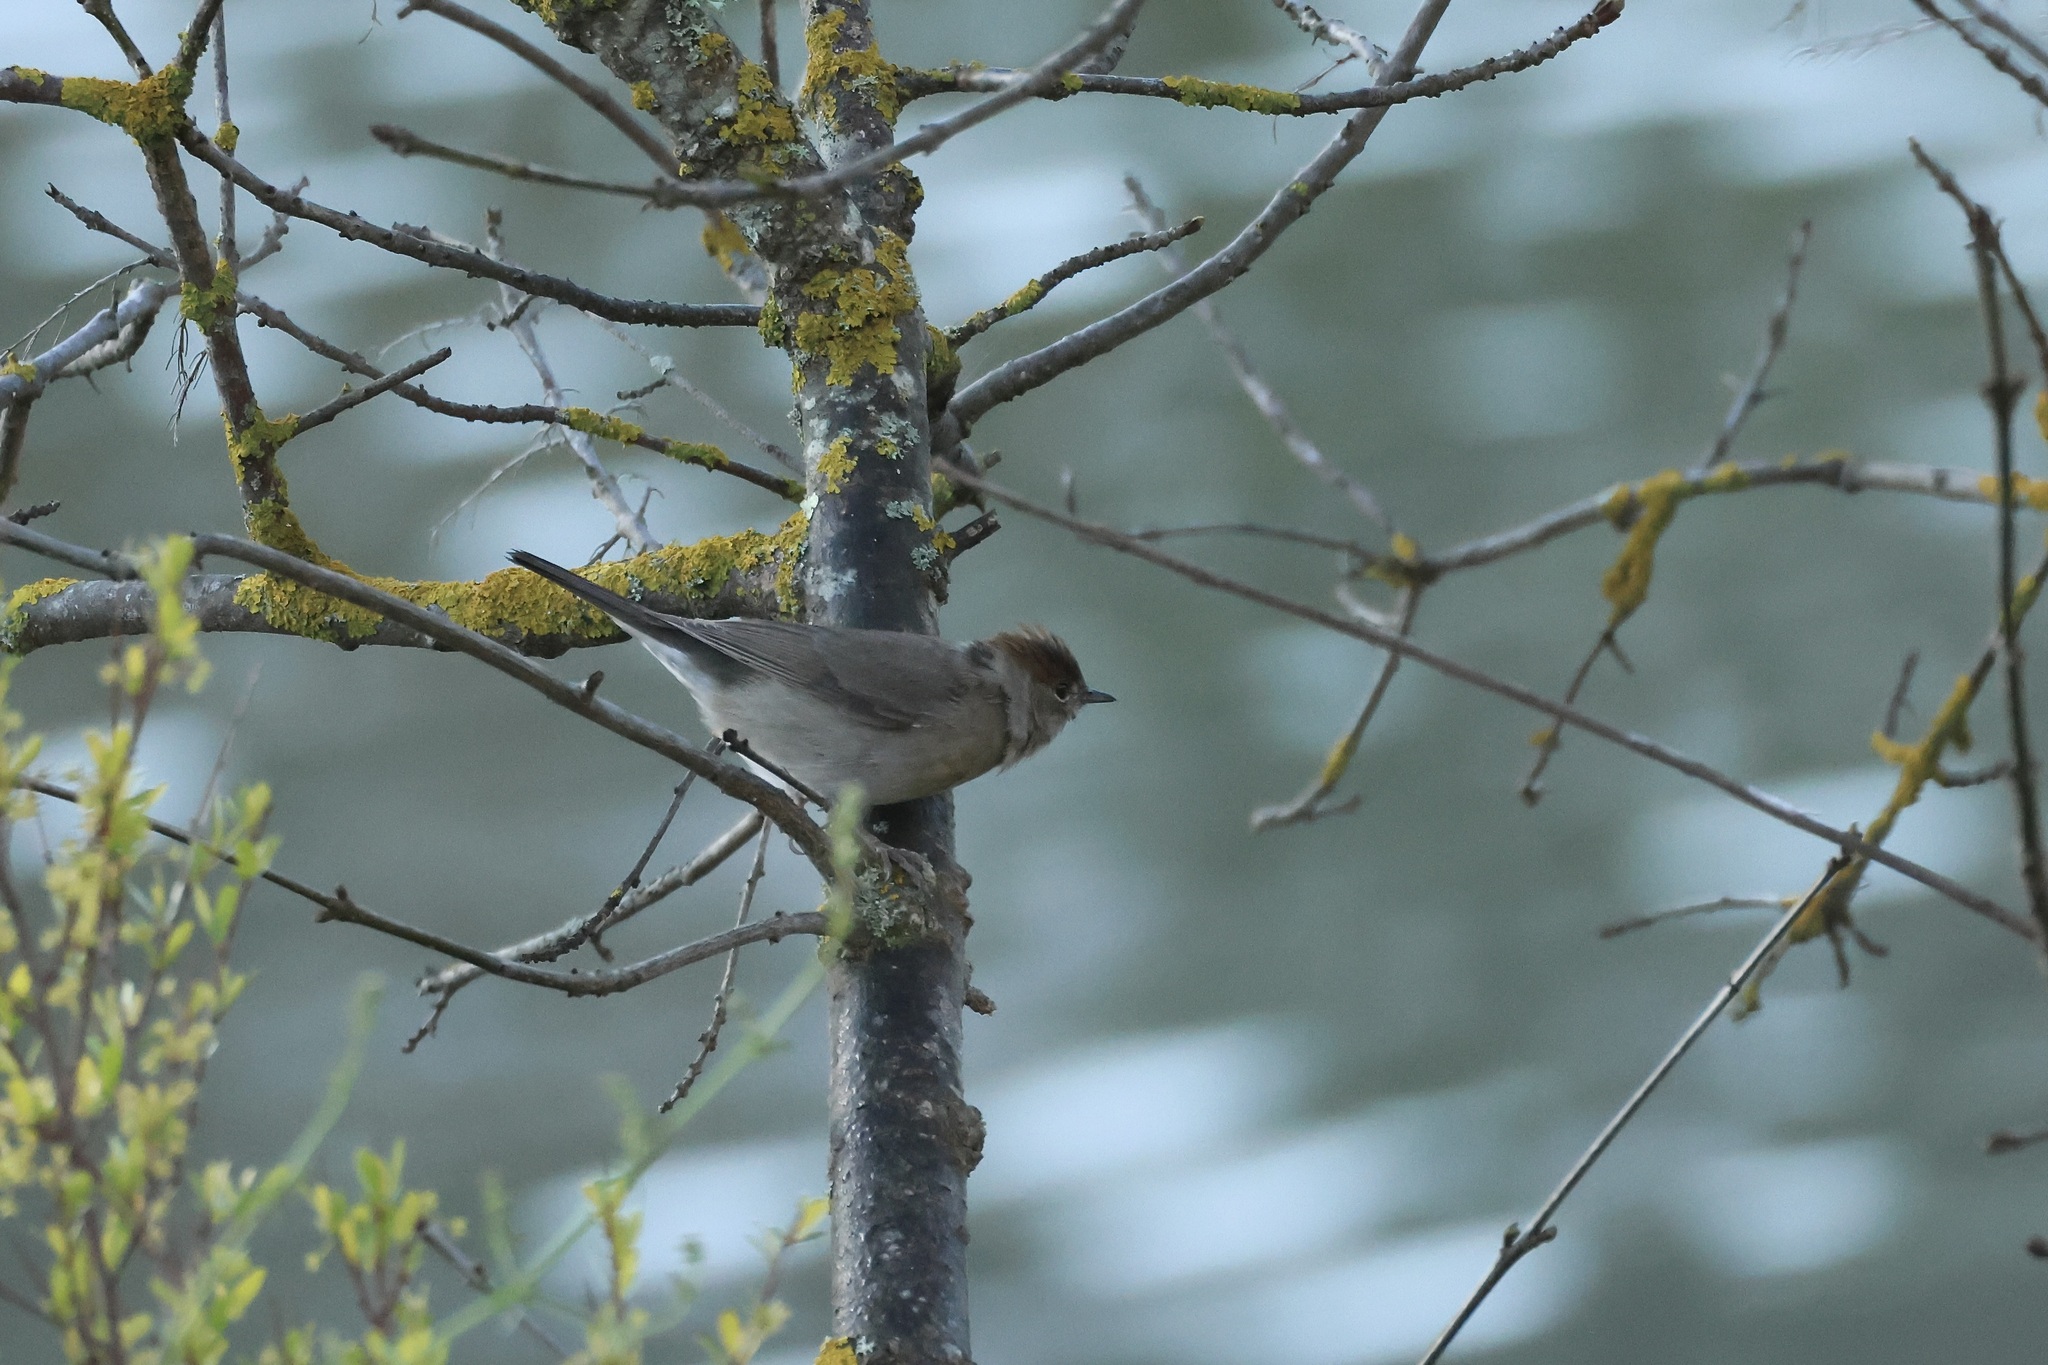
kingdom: Animalia
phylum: Chordata
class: Aves
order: Passeriformes
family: Sylviidae
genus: Sylvia
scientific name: Sylvia atricapilla
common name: Eurasian blackcap
